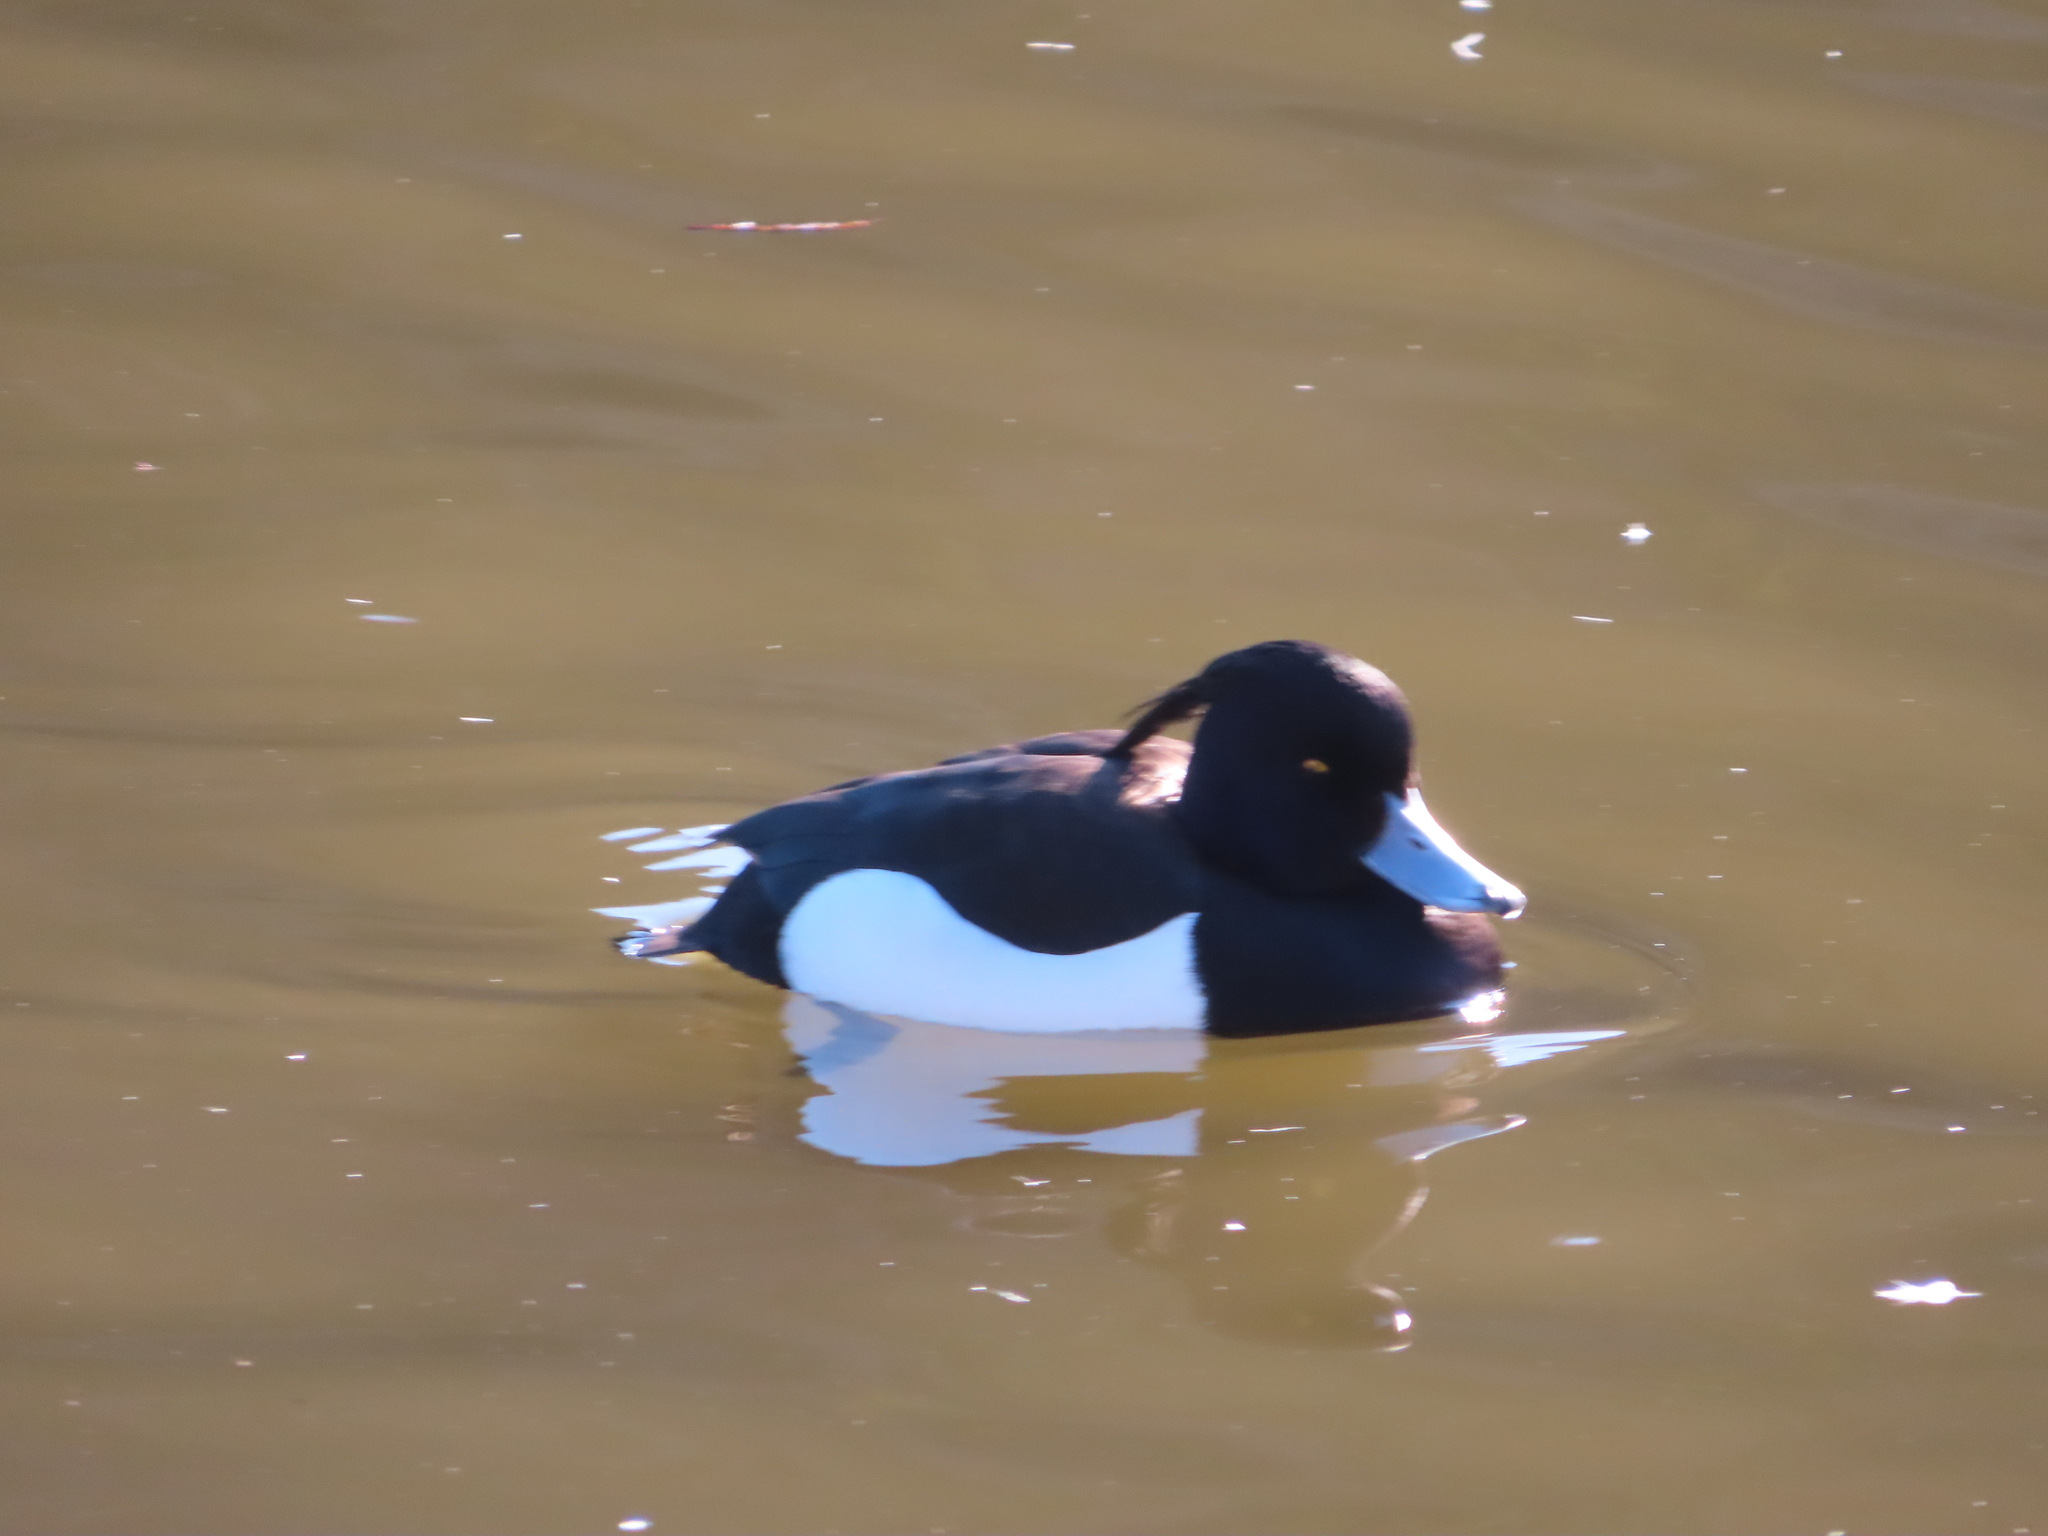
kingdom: Animalia
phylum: Chordata
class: Aves
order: Anseriformes
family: Anatidae
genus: Aythya
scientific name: Aythya fuligula
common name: Tufted duck
